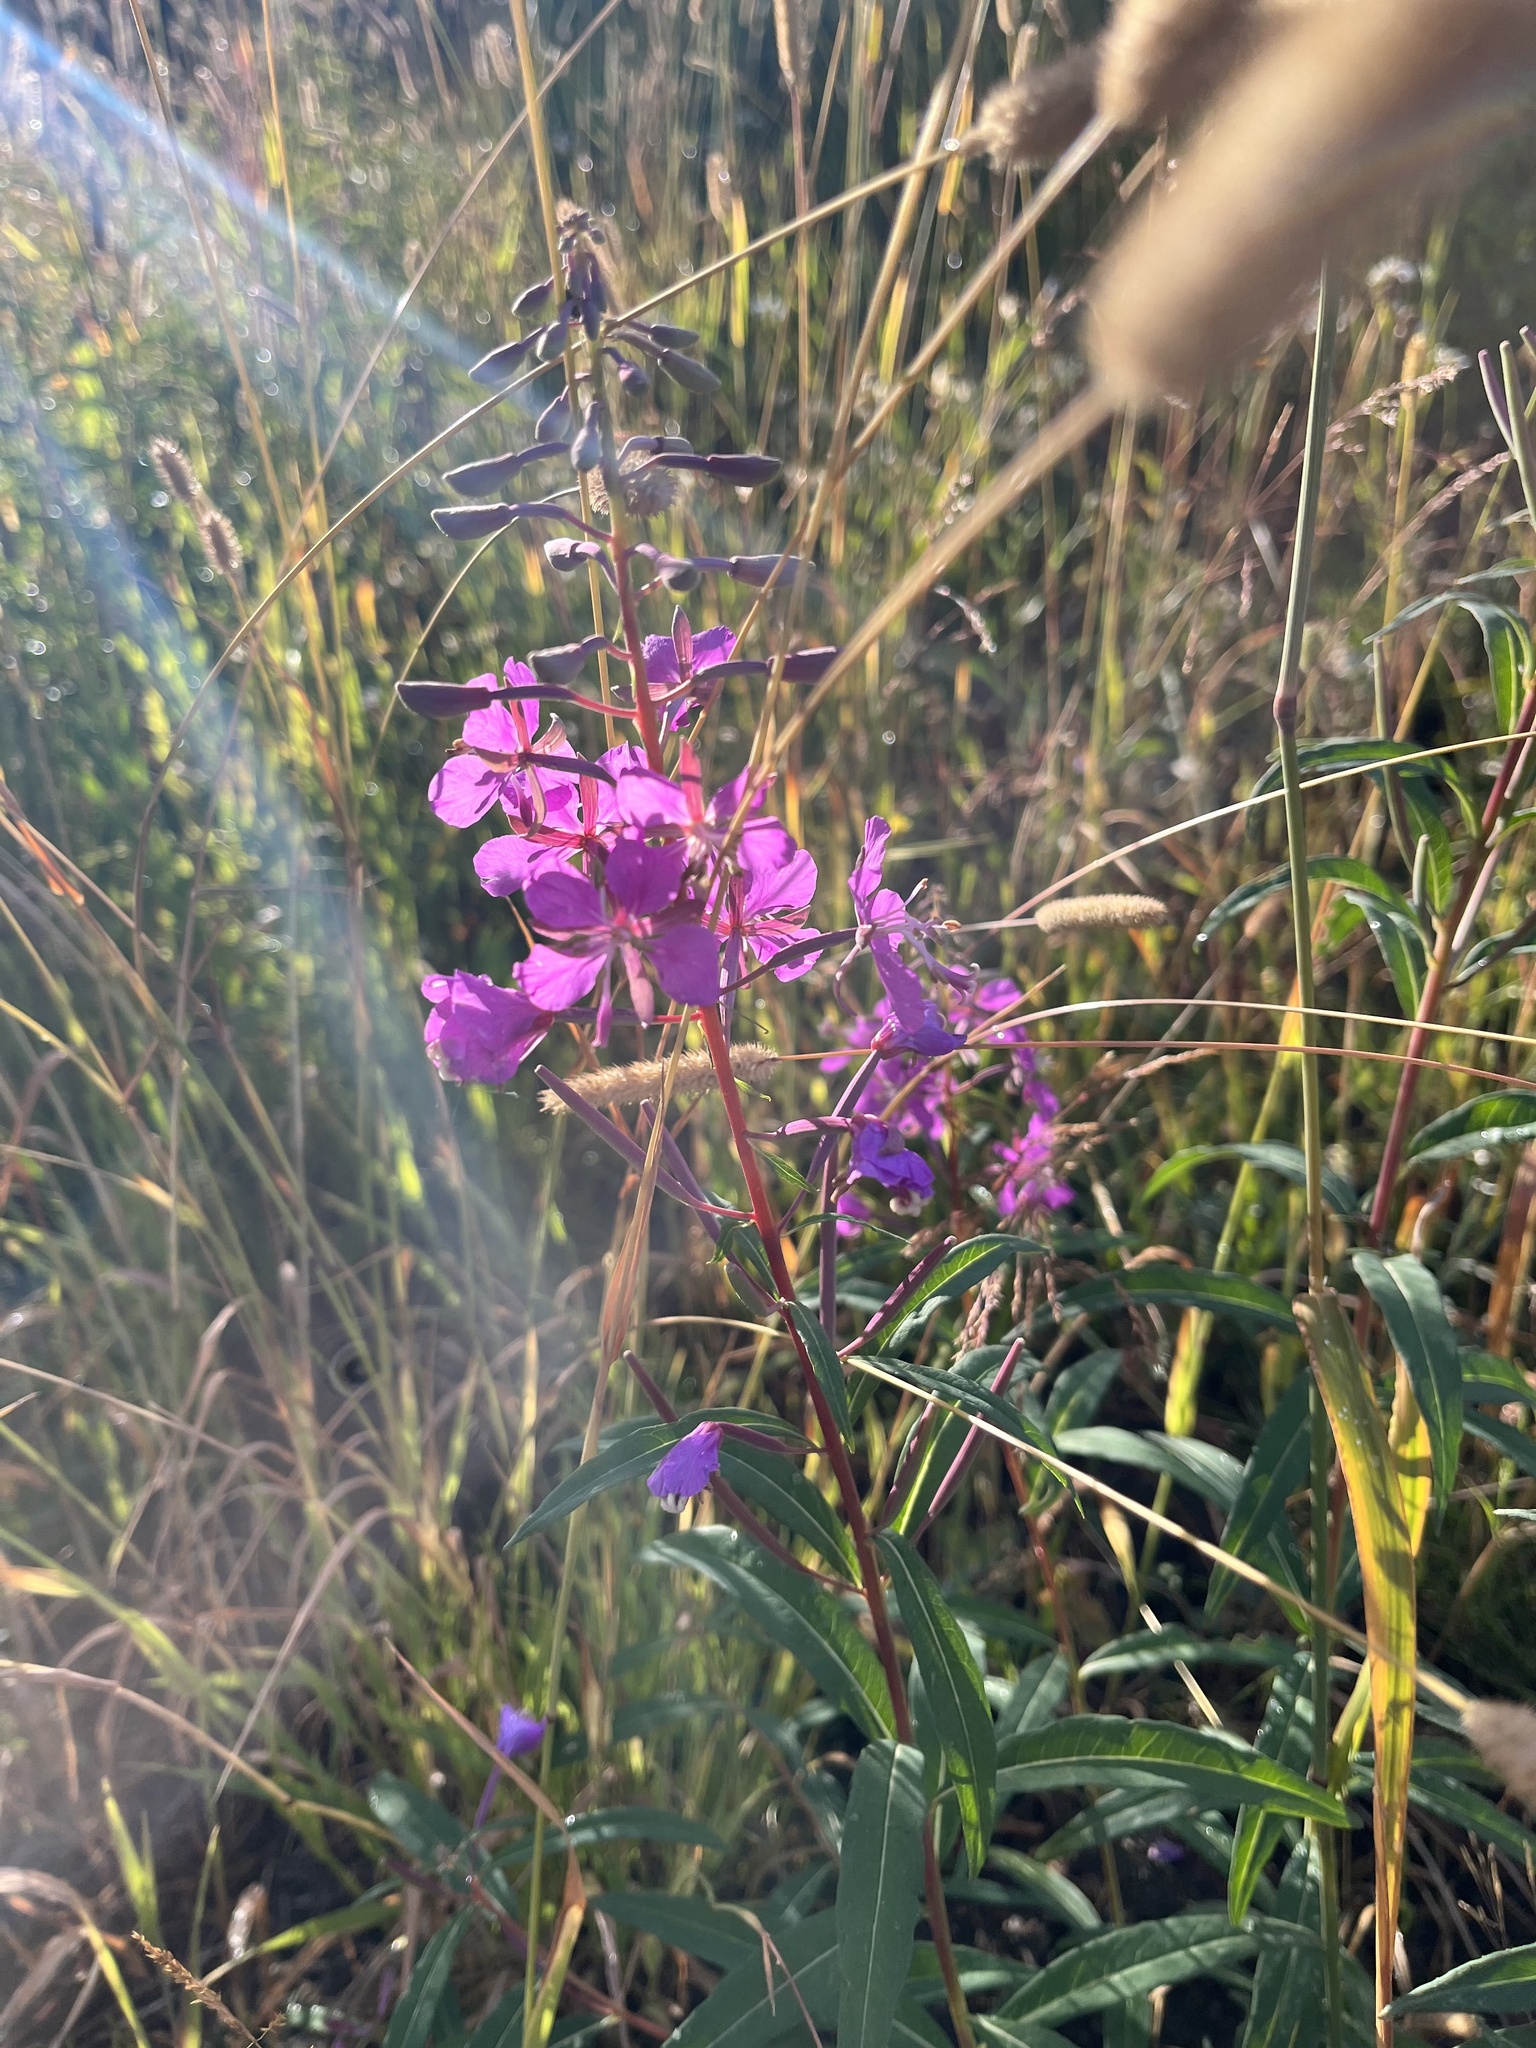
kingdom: Plantae
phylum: Tracheophyta
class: Magnoliopsida
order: Myrtales
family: Onagraceae
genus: Chamaenerion
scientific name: Chamaenerion angustifolium
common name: Fireweed
